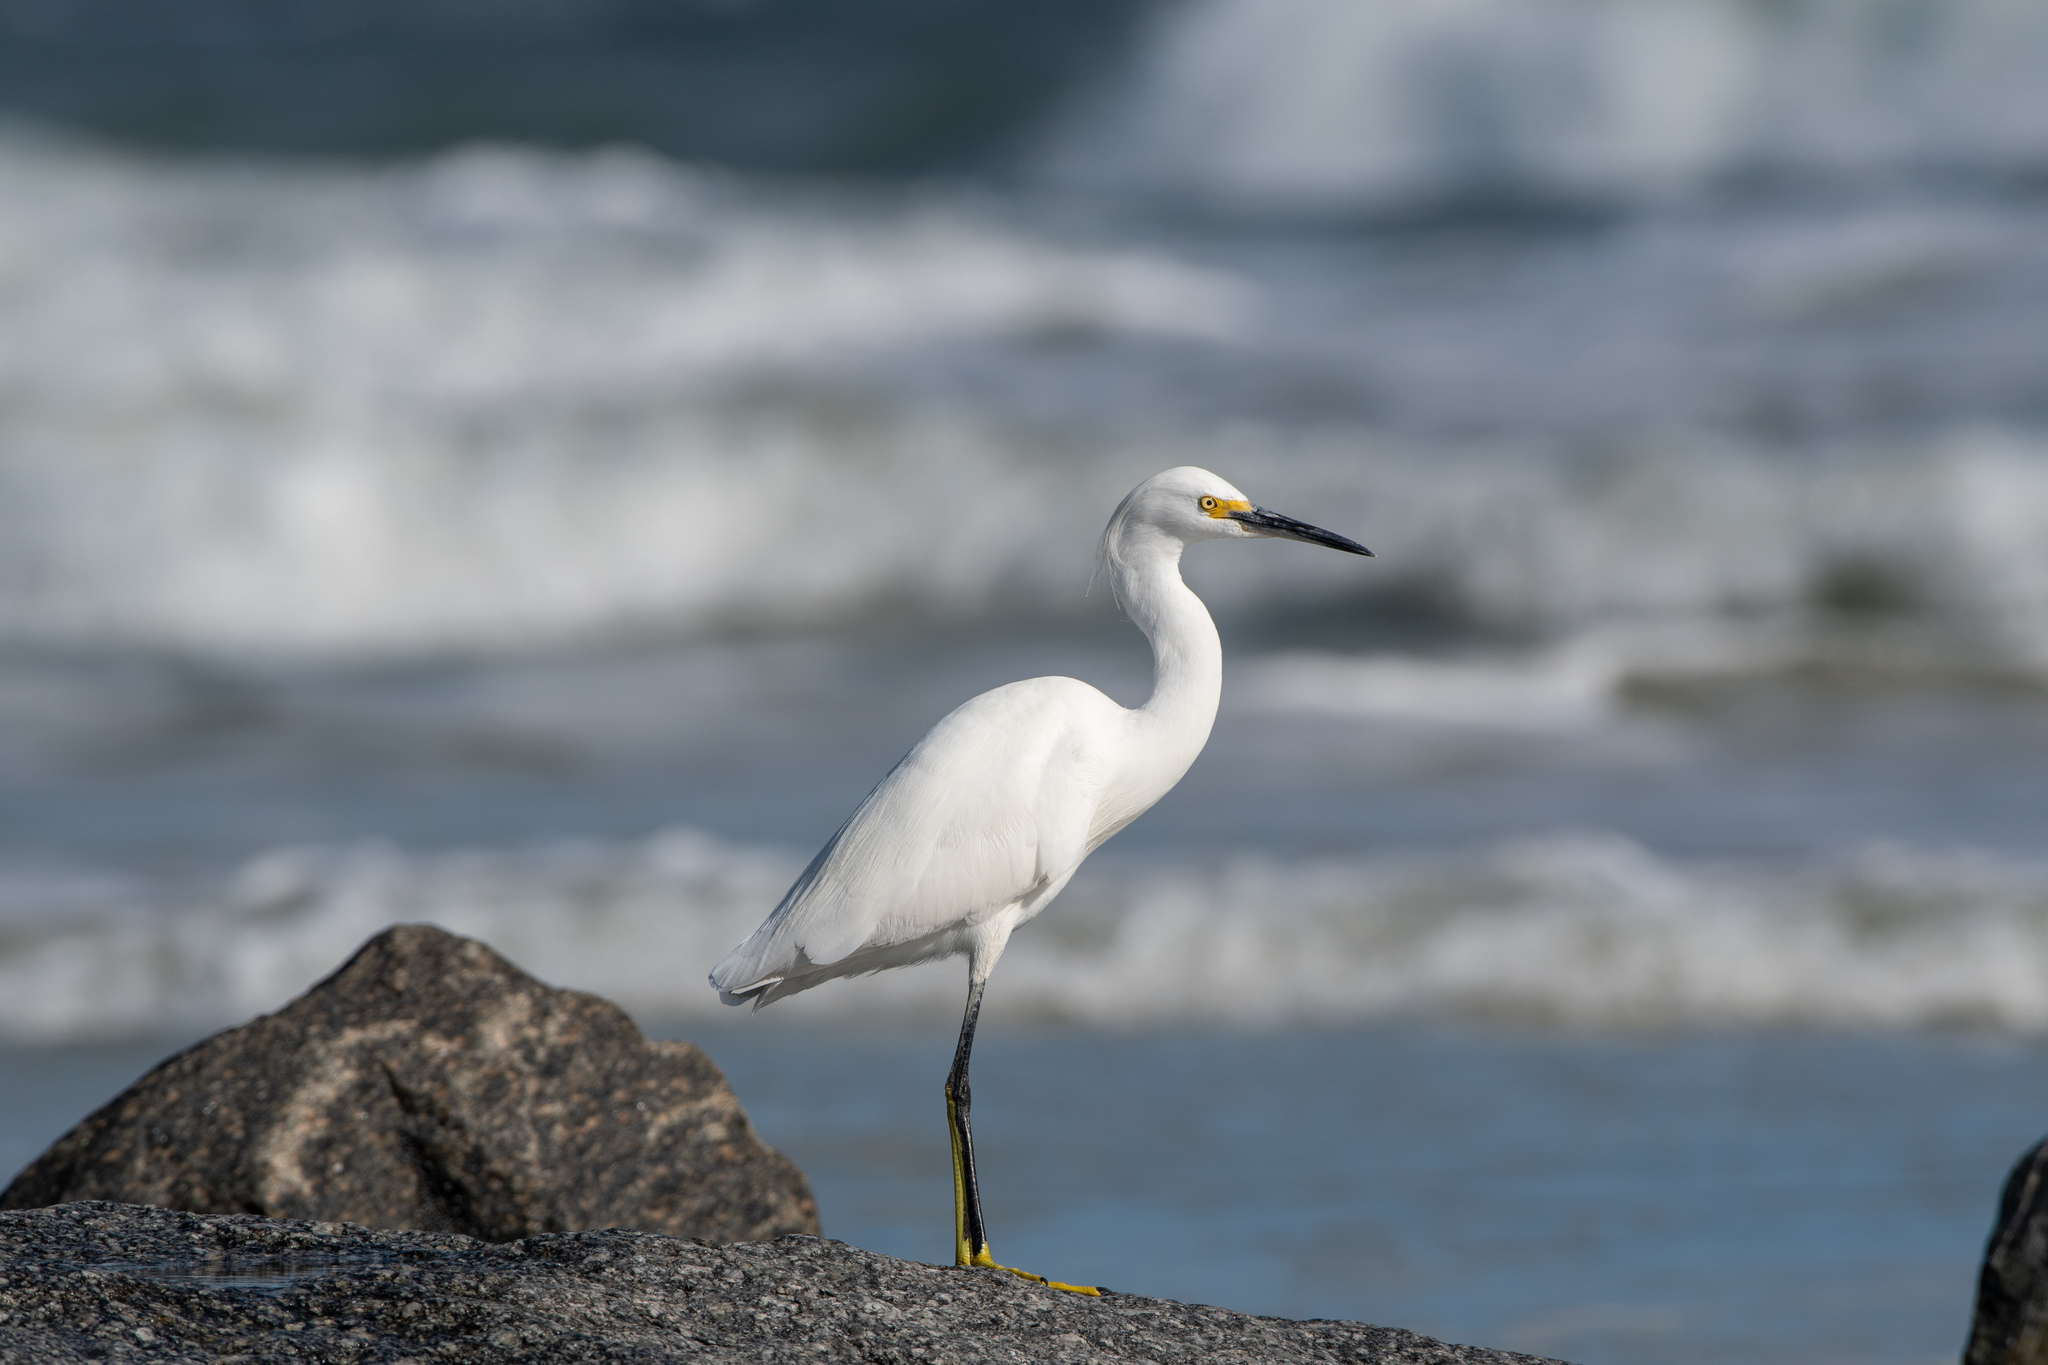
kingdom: Animalia
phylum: Chordata
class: Aves
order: Pelecaniformes
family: Ardeidae
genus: Egretta
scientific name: Egretta thula
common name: Snowy egret
